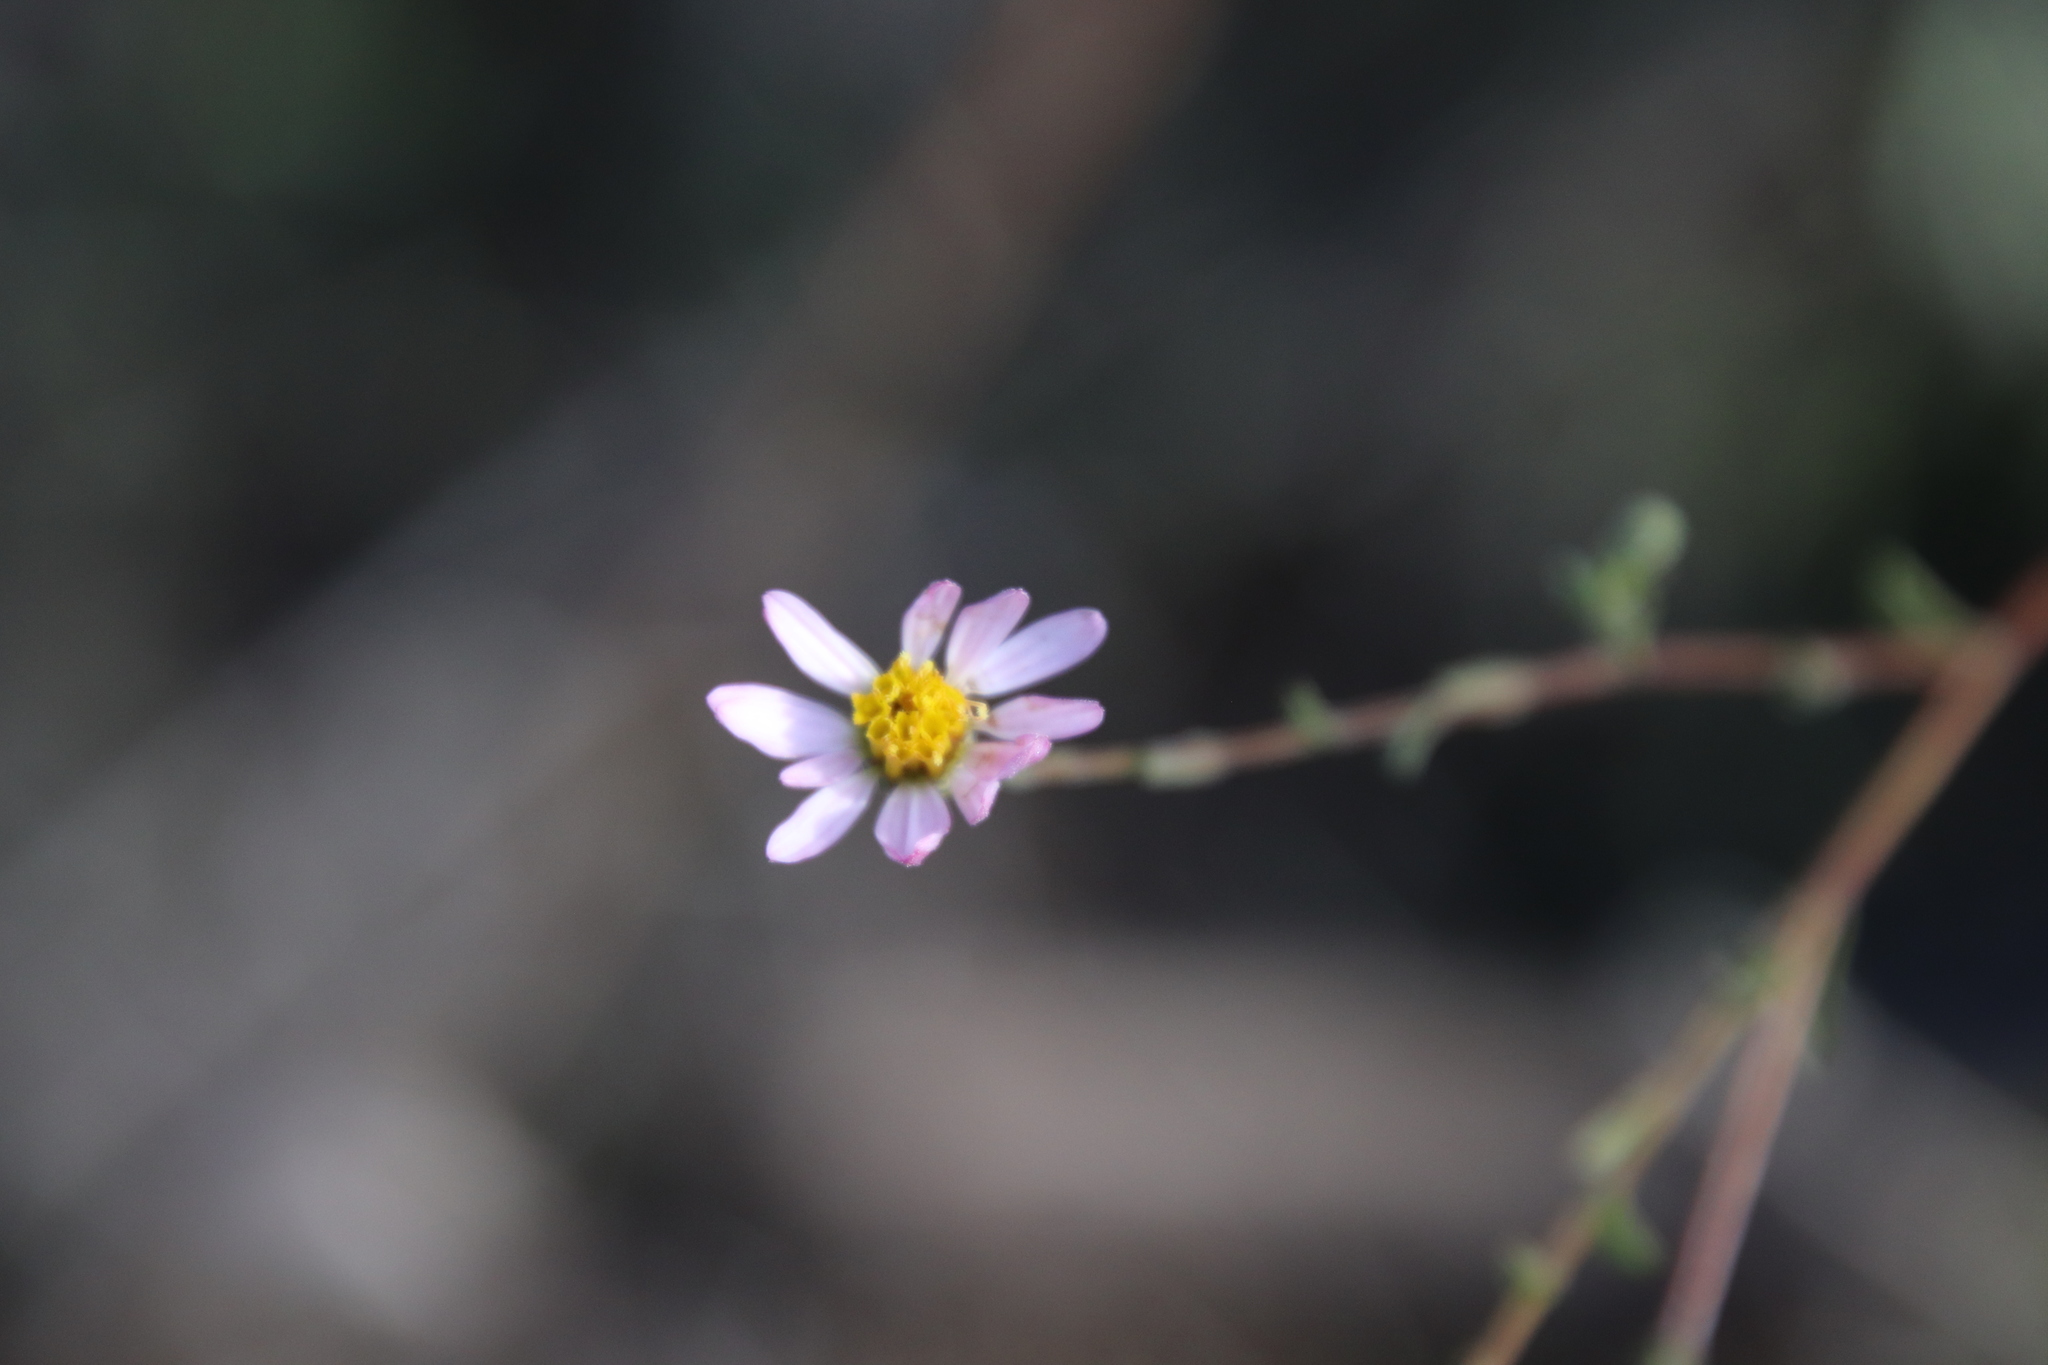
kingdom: Plantae
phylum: Tracheophyta
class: Magnoliopsida
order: Asterales
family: Asteraceae
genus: Corethrogyne
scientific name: Corethrogyne filaginifolia
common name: Sand-aster
